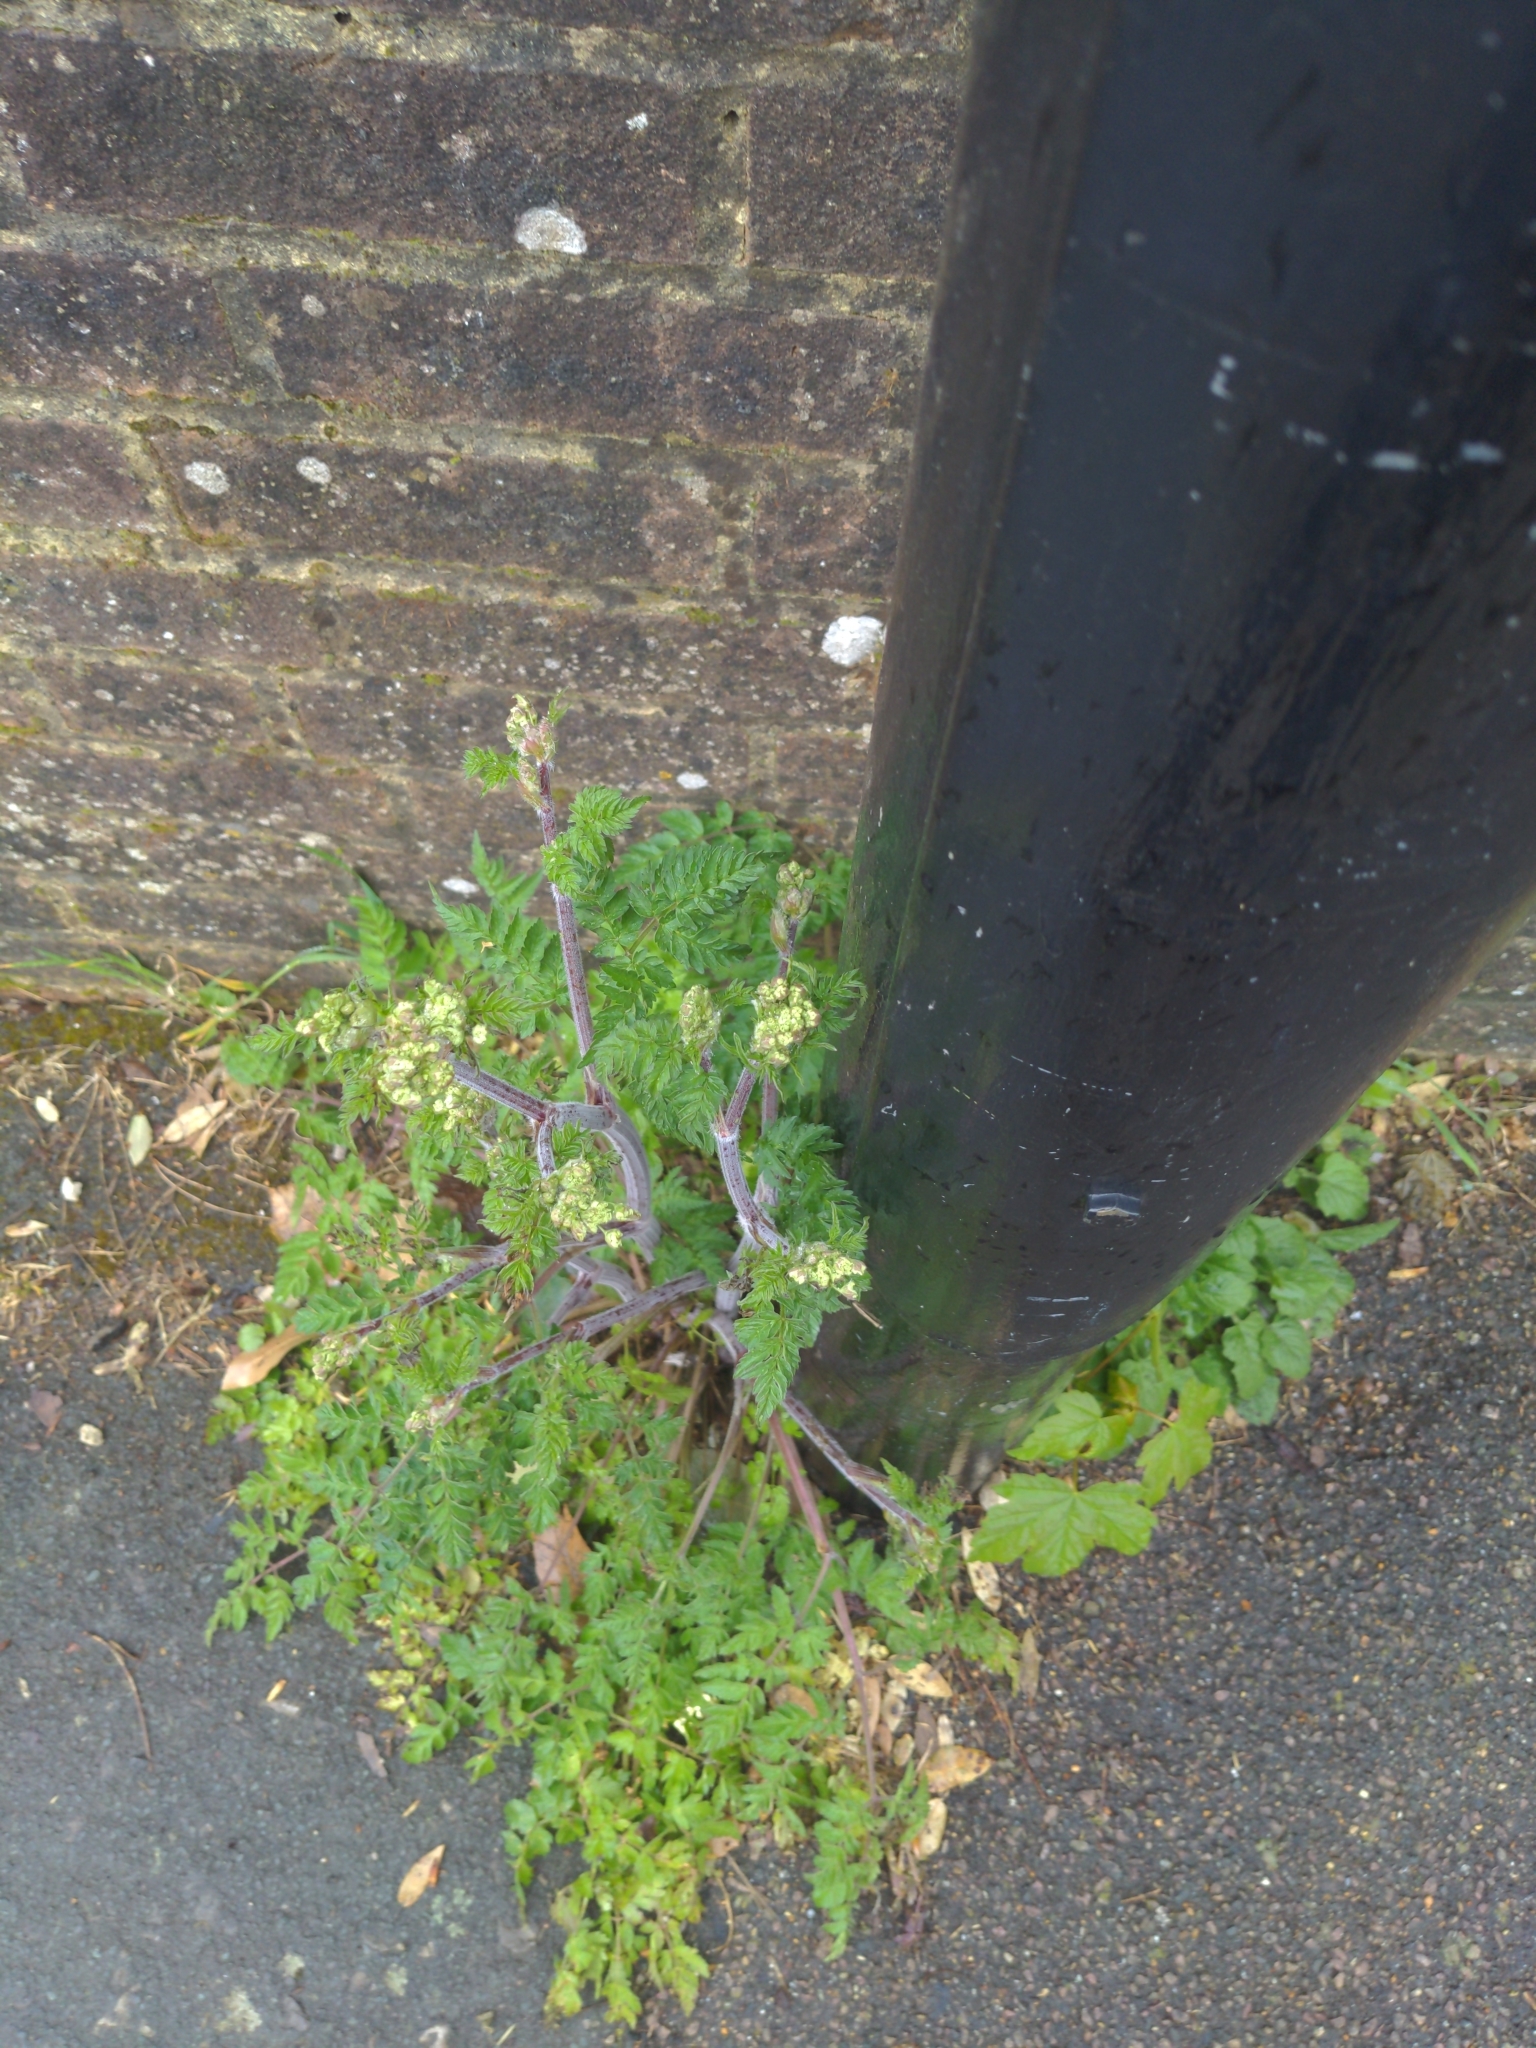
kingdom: Plantae
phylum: Tracheophyta
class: Magnoliopsida
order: Apiales
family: Apiaceae
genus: Anthriscus
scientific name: Anthriscus sylvestris
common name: Cow parsley
